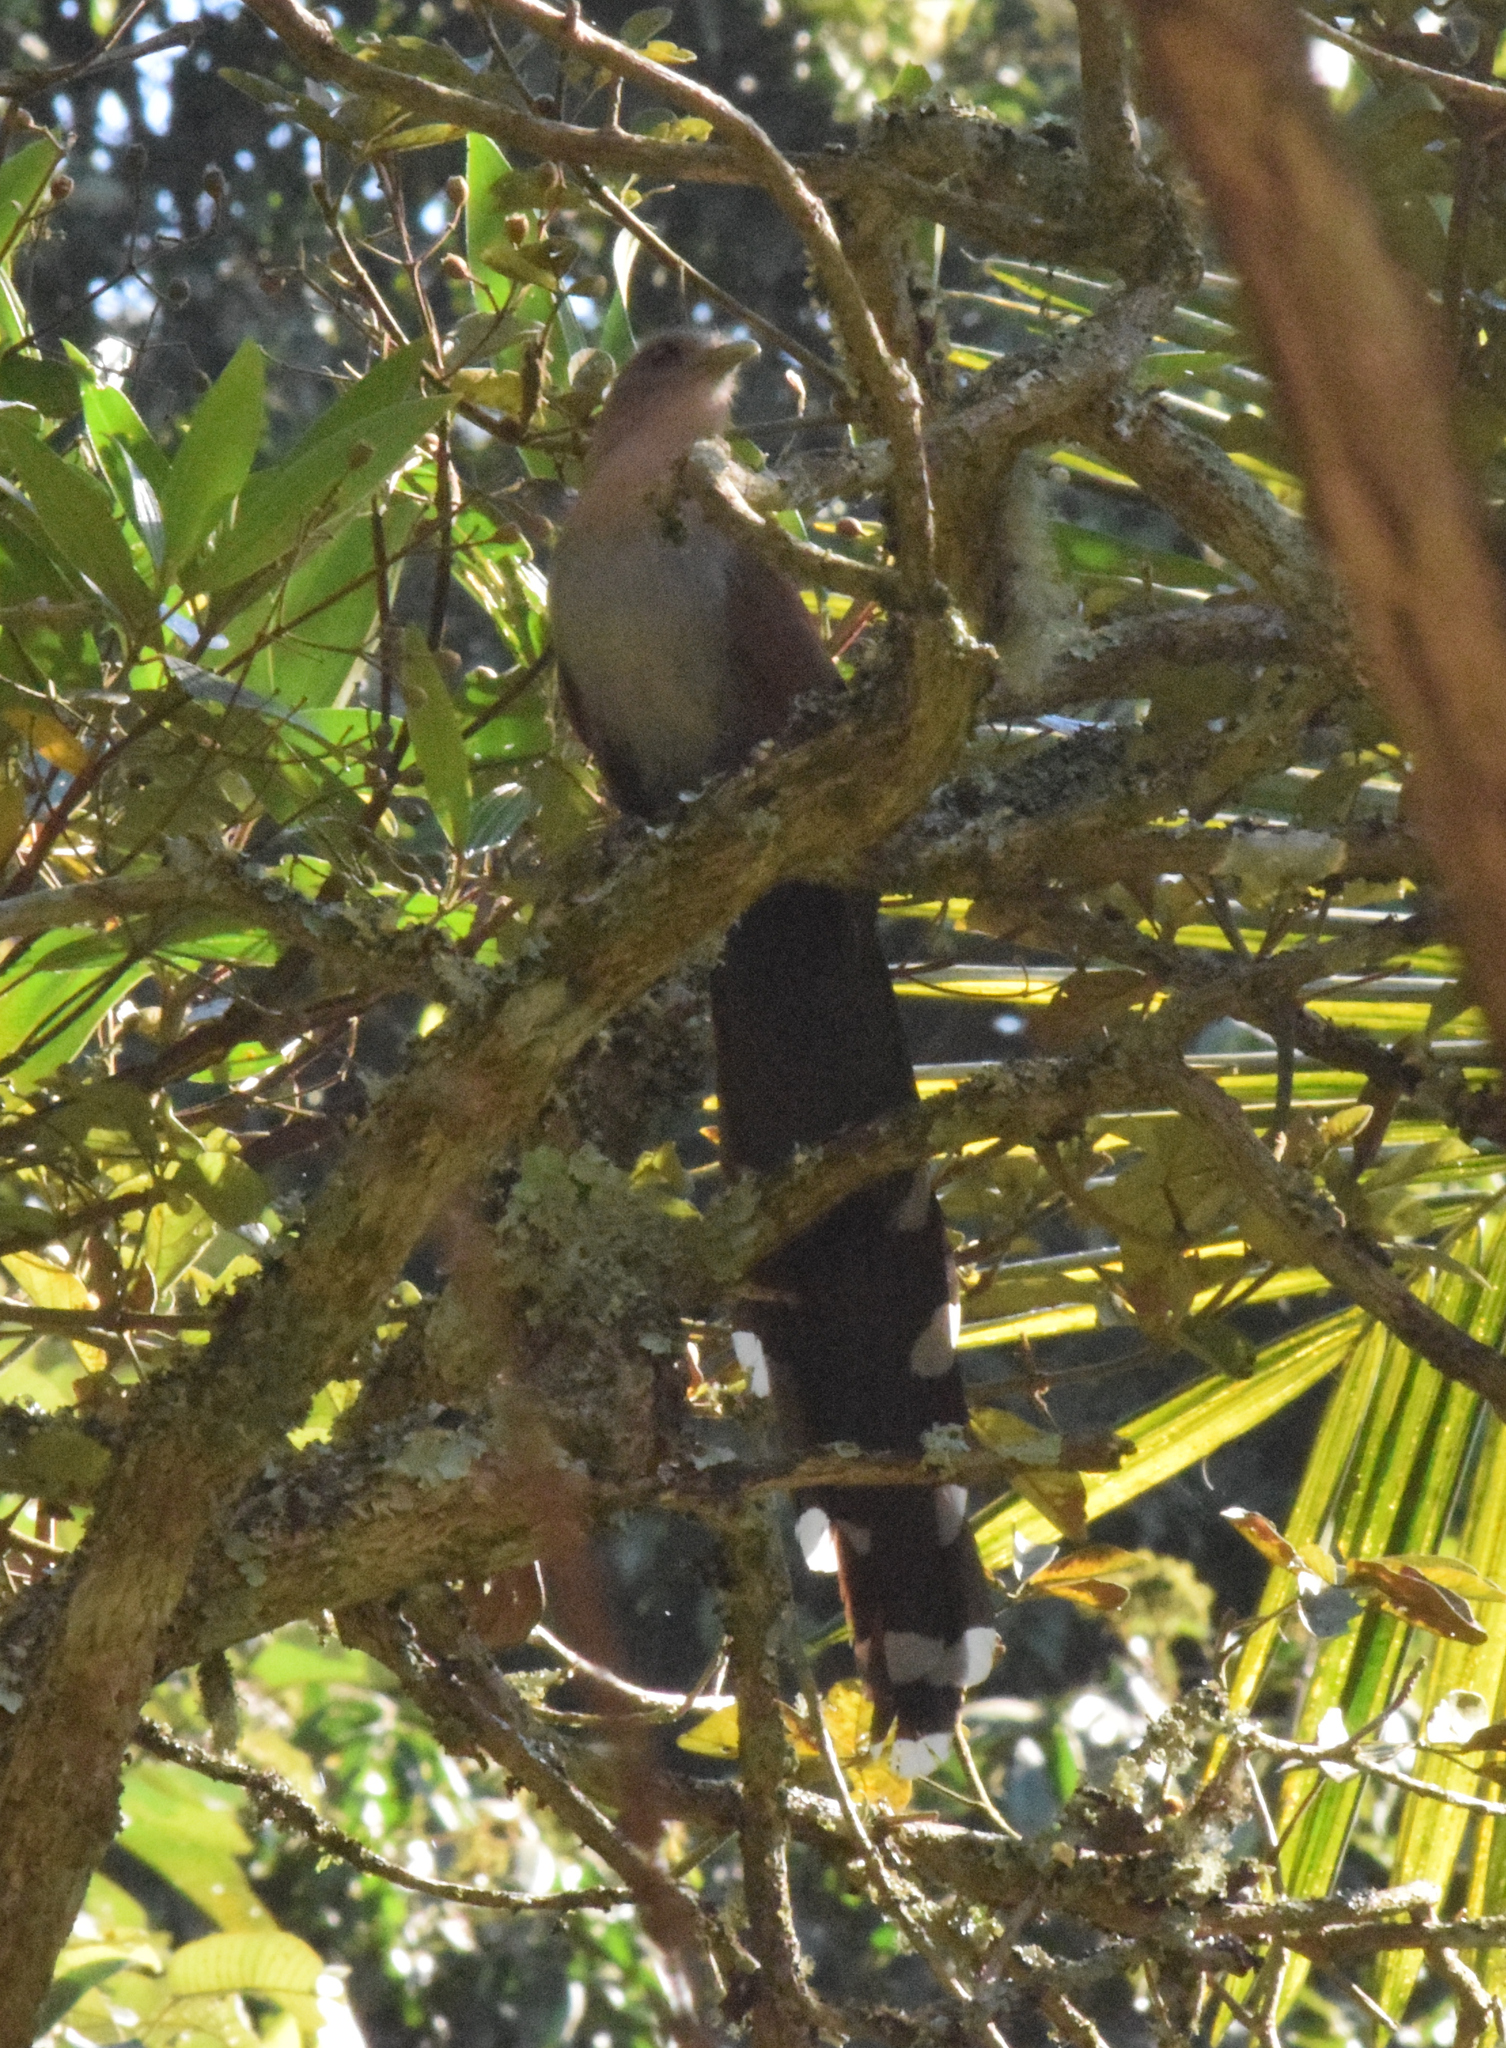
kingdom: Animalia
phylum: Chordata
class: Aves
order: Cuculiformes
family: Cuculidae
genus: Piaya
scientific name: Piaya cayana
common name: Squirrel cuckoo
